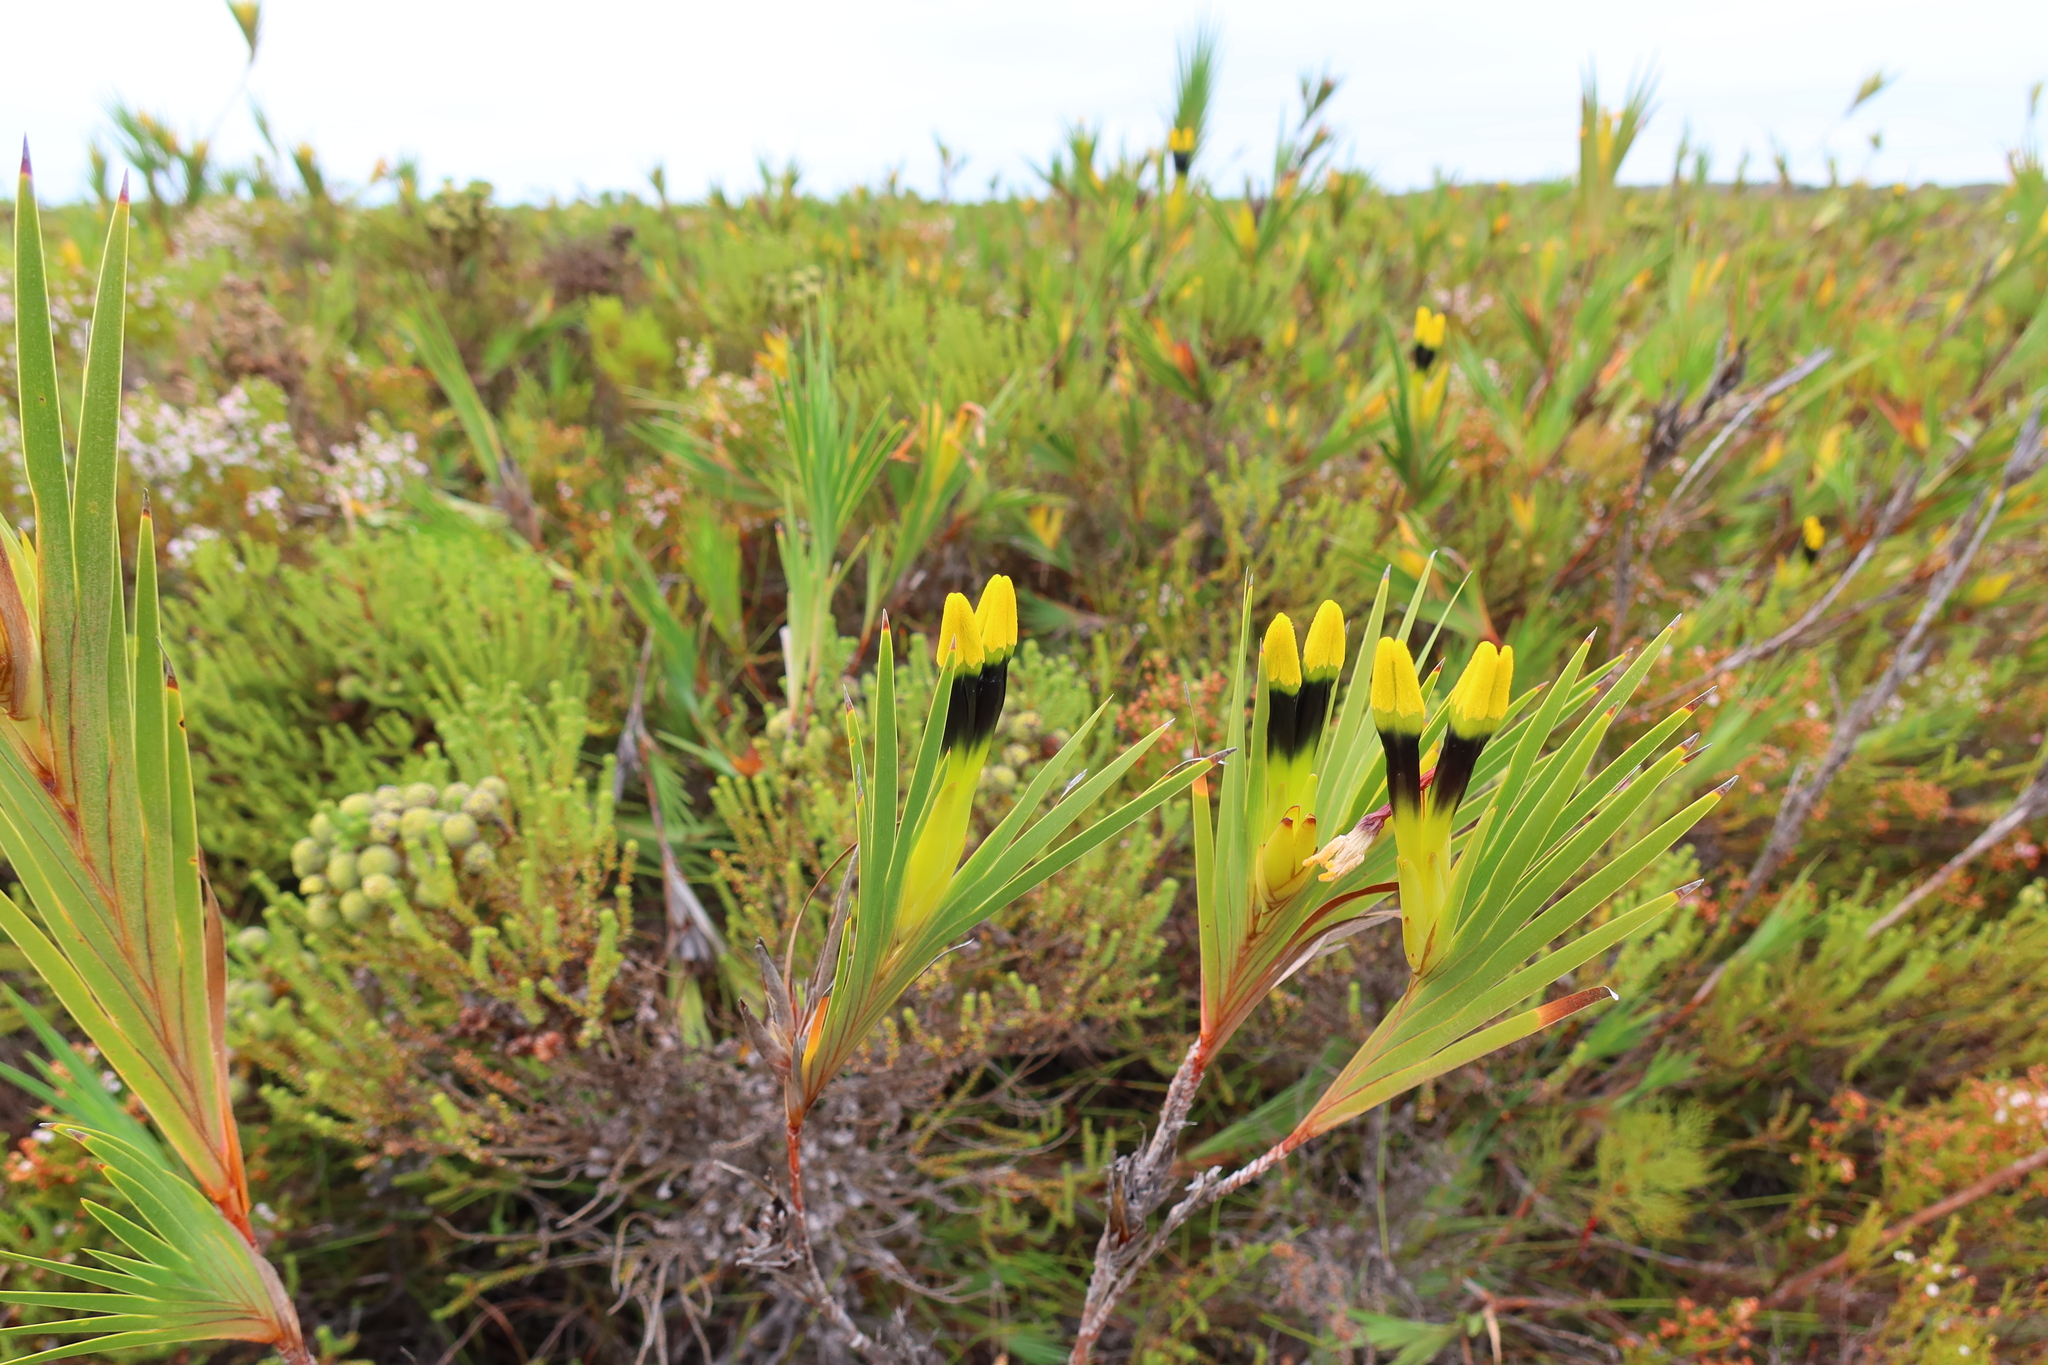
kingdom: Plantae
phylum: Tracheophyta
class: Liliopsida
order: Asparagales
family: Iridaceae
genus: Witsenia
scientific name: Witsenia maura
